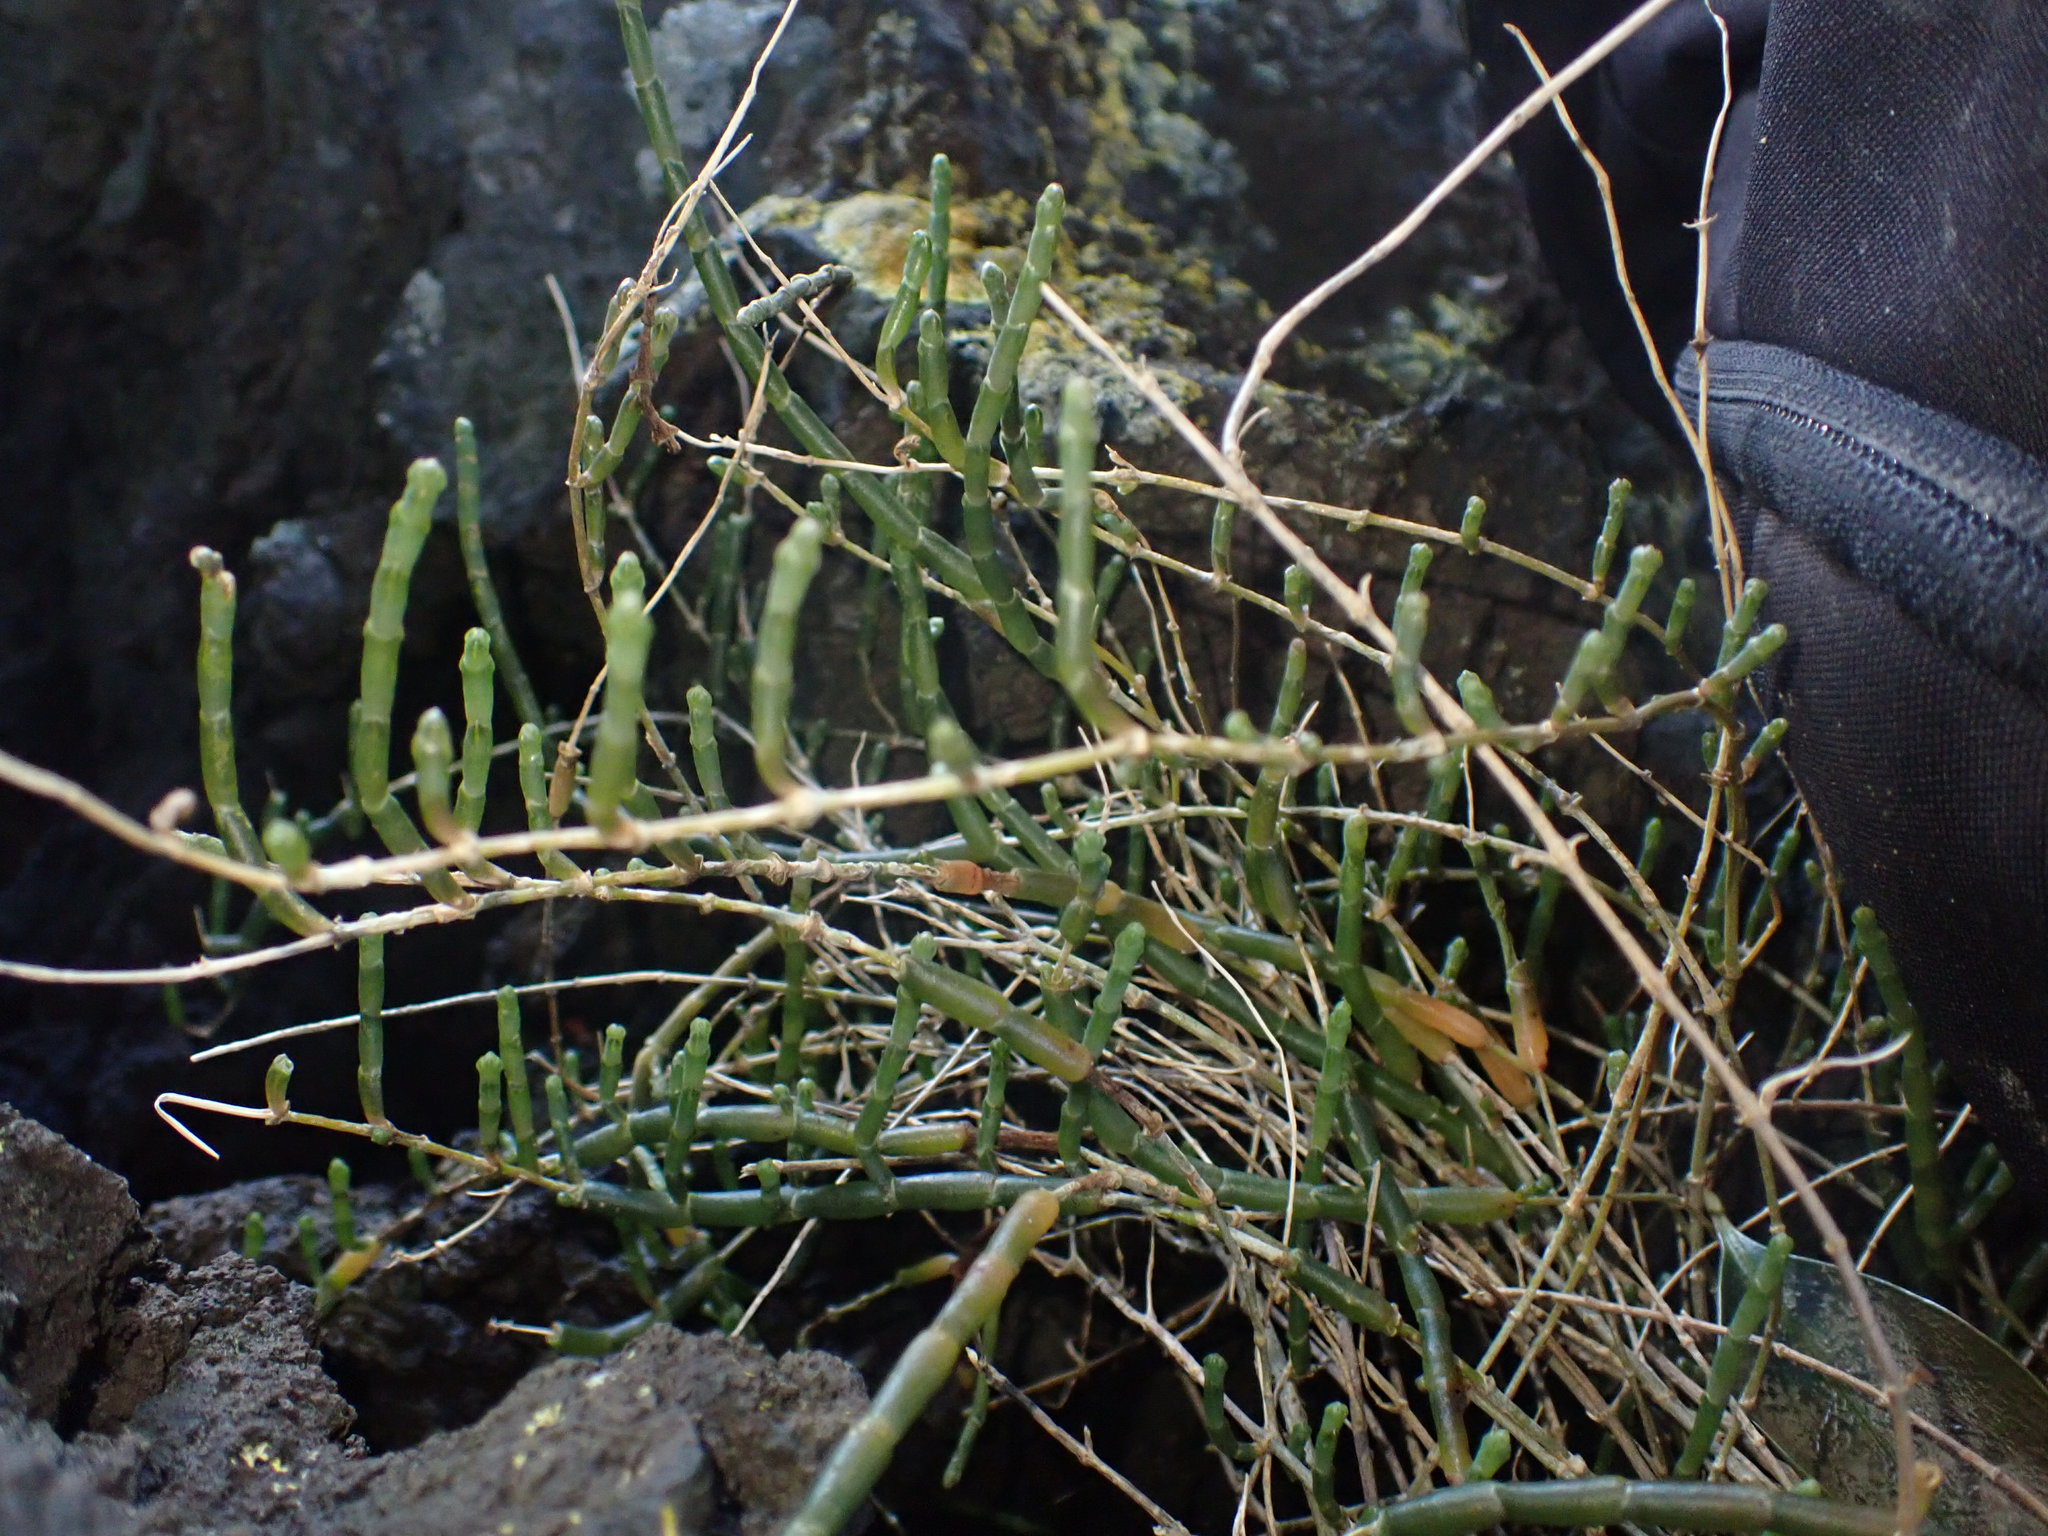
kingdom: Plantae
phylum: Tracheophyta
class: Magnoliopsida
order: Caryophyllales
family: Amaranthaceae
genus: Salicornia
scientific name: Salicornia quinqueflora
